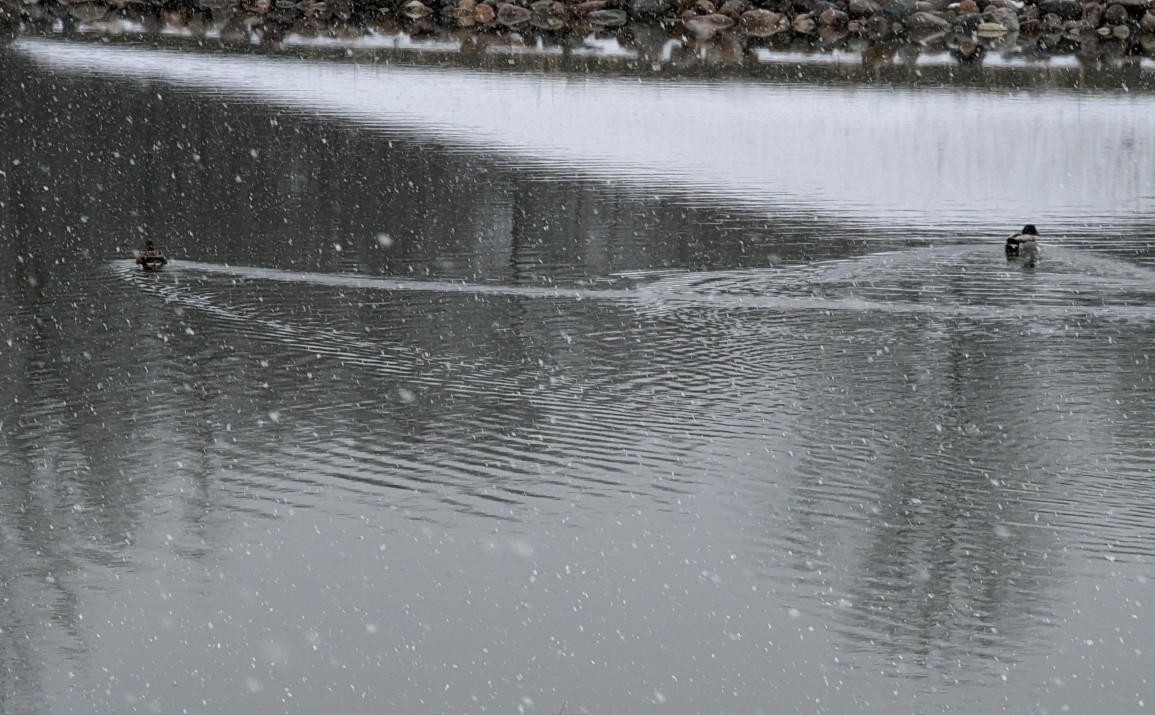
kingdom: Animalia
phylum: Chordata
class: Aves
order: Anseriformes
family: Anatidae
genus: Anas
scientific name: Anas platyrhynchos
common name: Mallard
